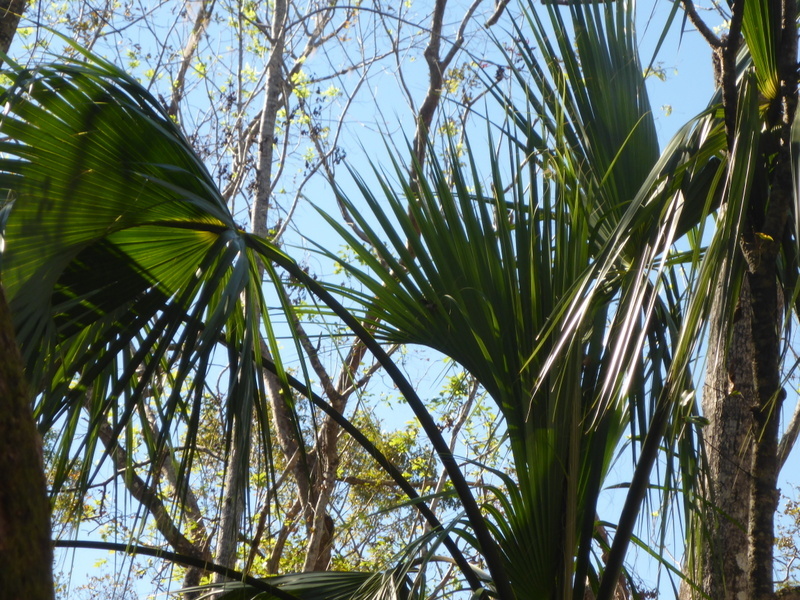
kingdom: Plantae
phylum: Tracheophyta
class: Liliopsida
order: Arecales
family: Arecaceae
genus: Sabal
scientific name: Sabal palmetto
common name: Blue palmetto
